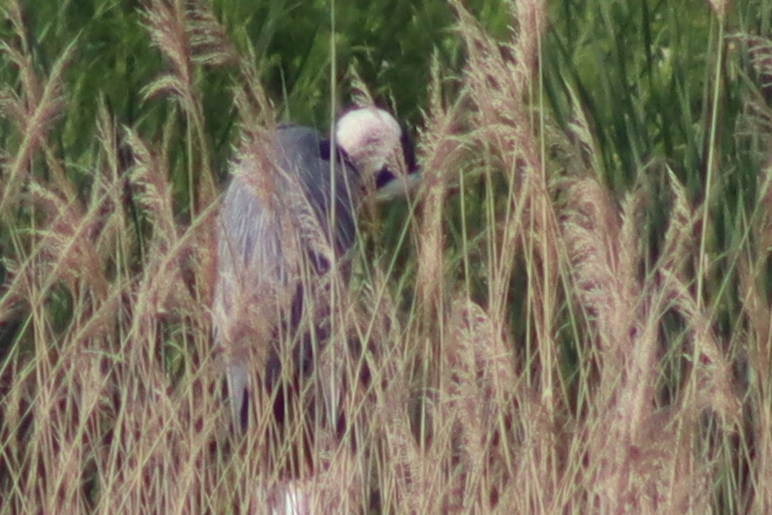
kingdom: Animalia
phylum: Chordata
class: Aves
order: Pelecaniformes
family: Ardeidae
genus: Ardea
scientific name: Ardea cinerea
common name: Grey heron
